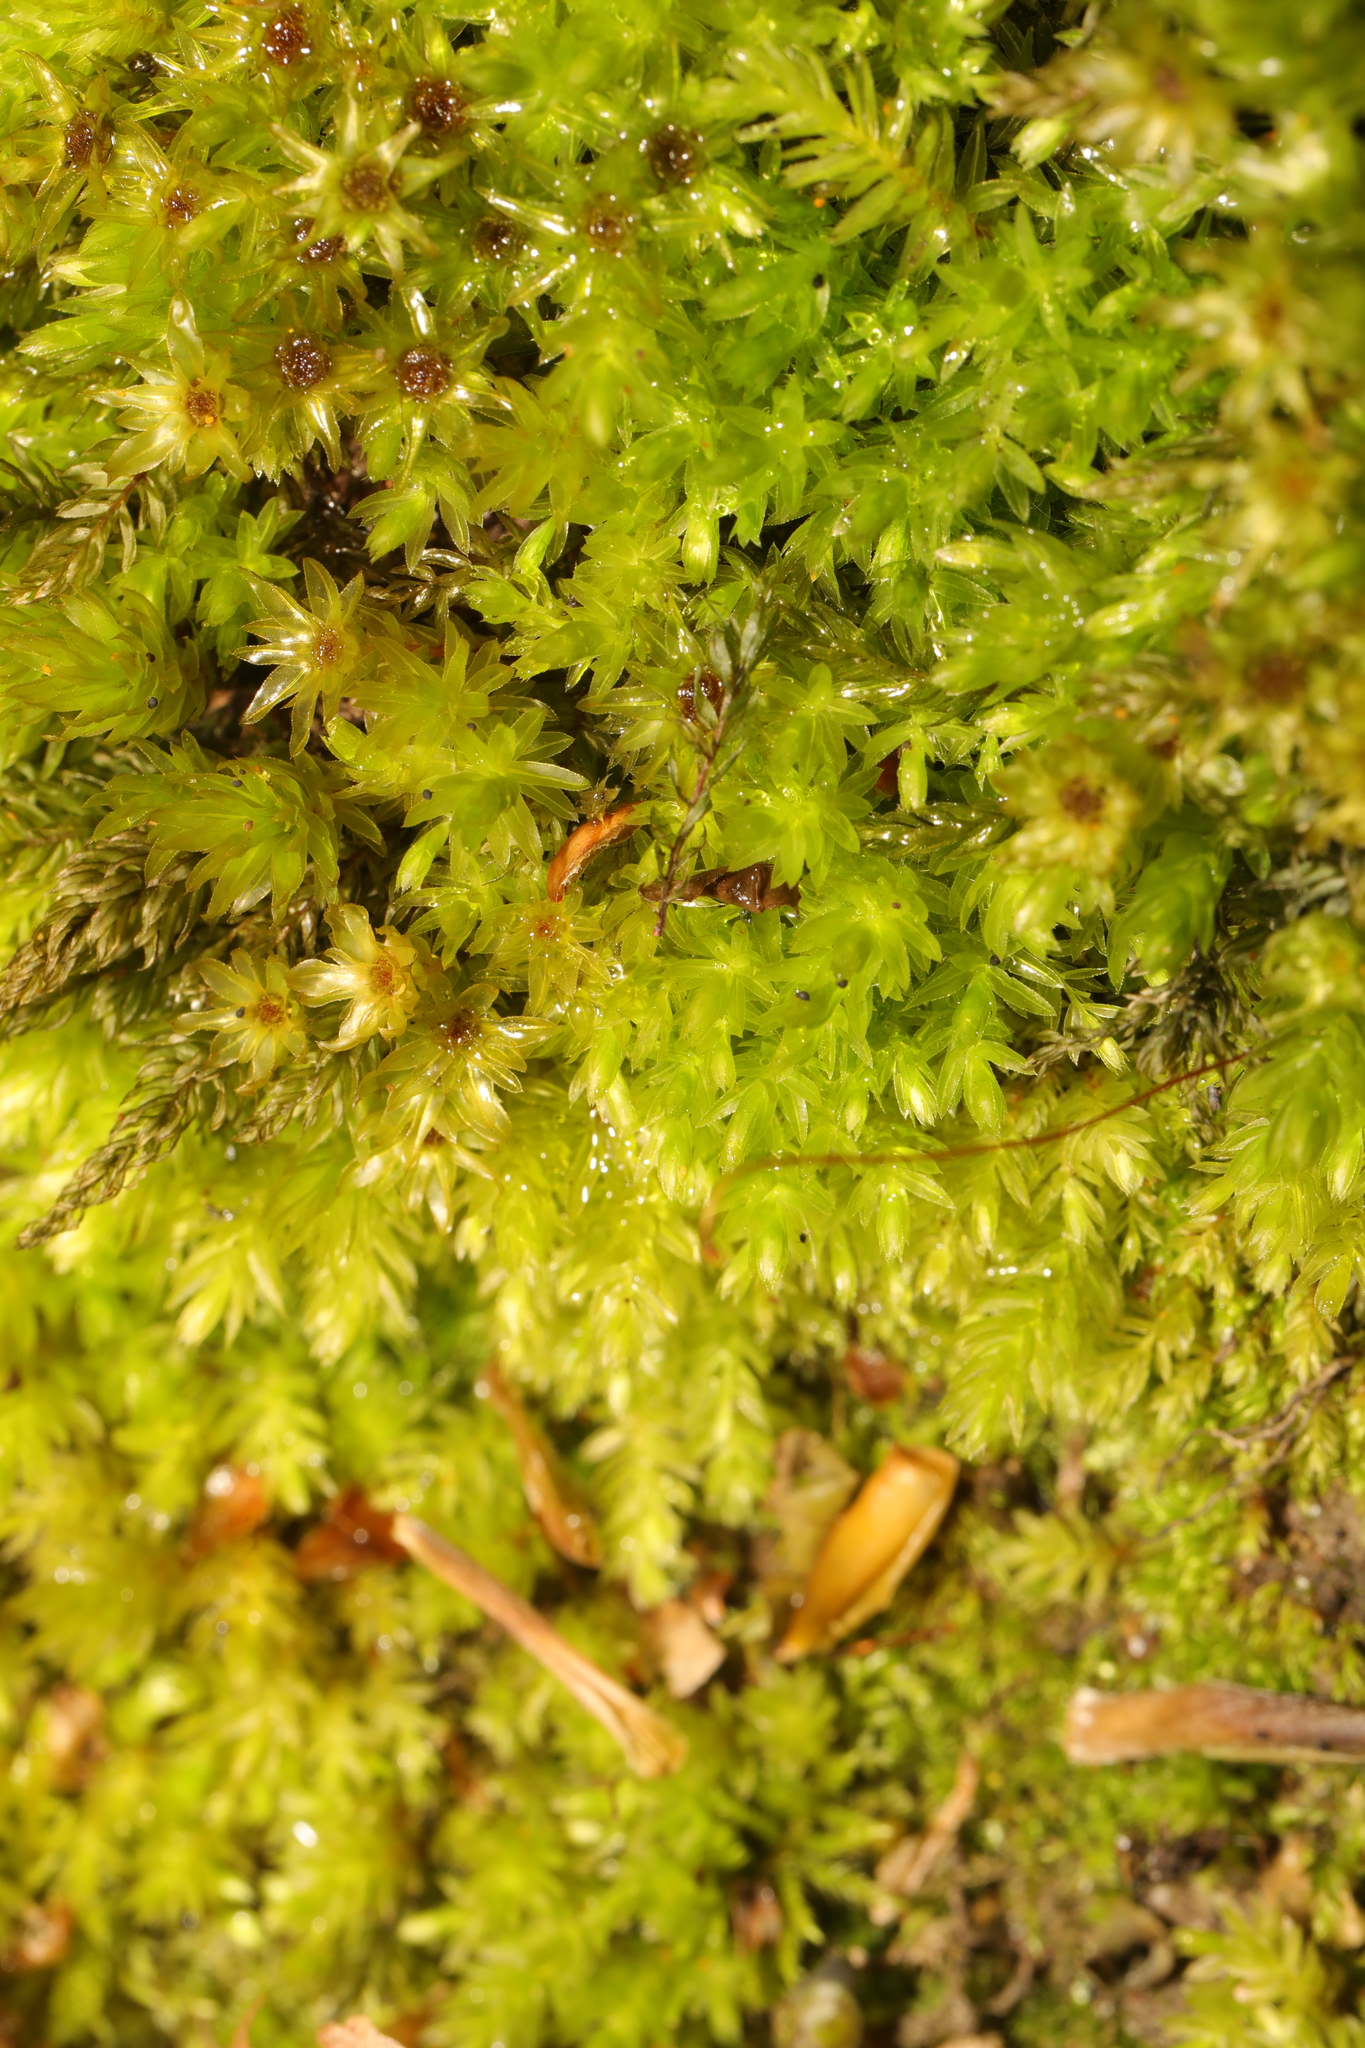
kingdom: Plantae
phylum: Bryophyta
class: Bryopsida
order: Bryales
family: Mniaceae
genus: Mnium
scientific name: Mnium hornum
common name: Swan's-neck leafy moss
